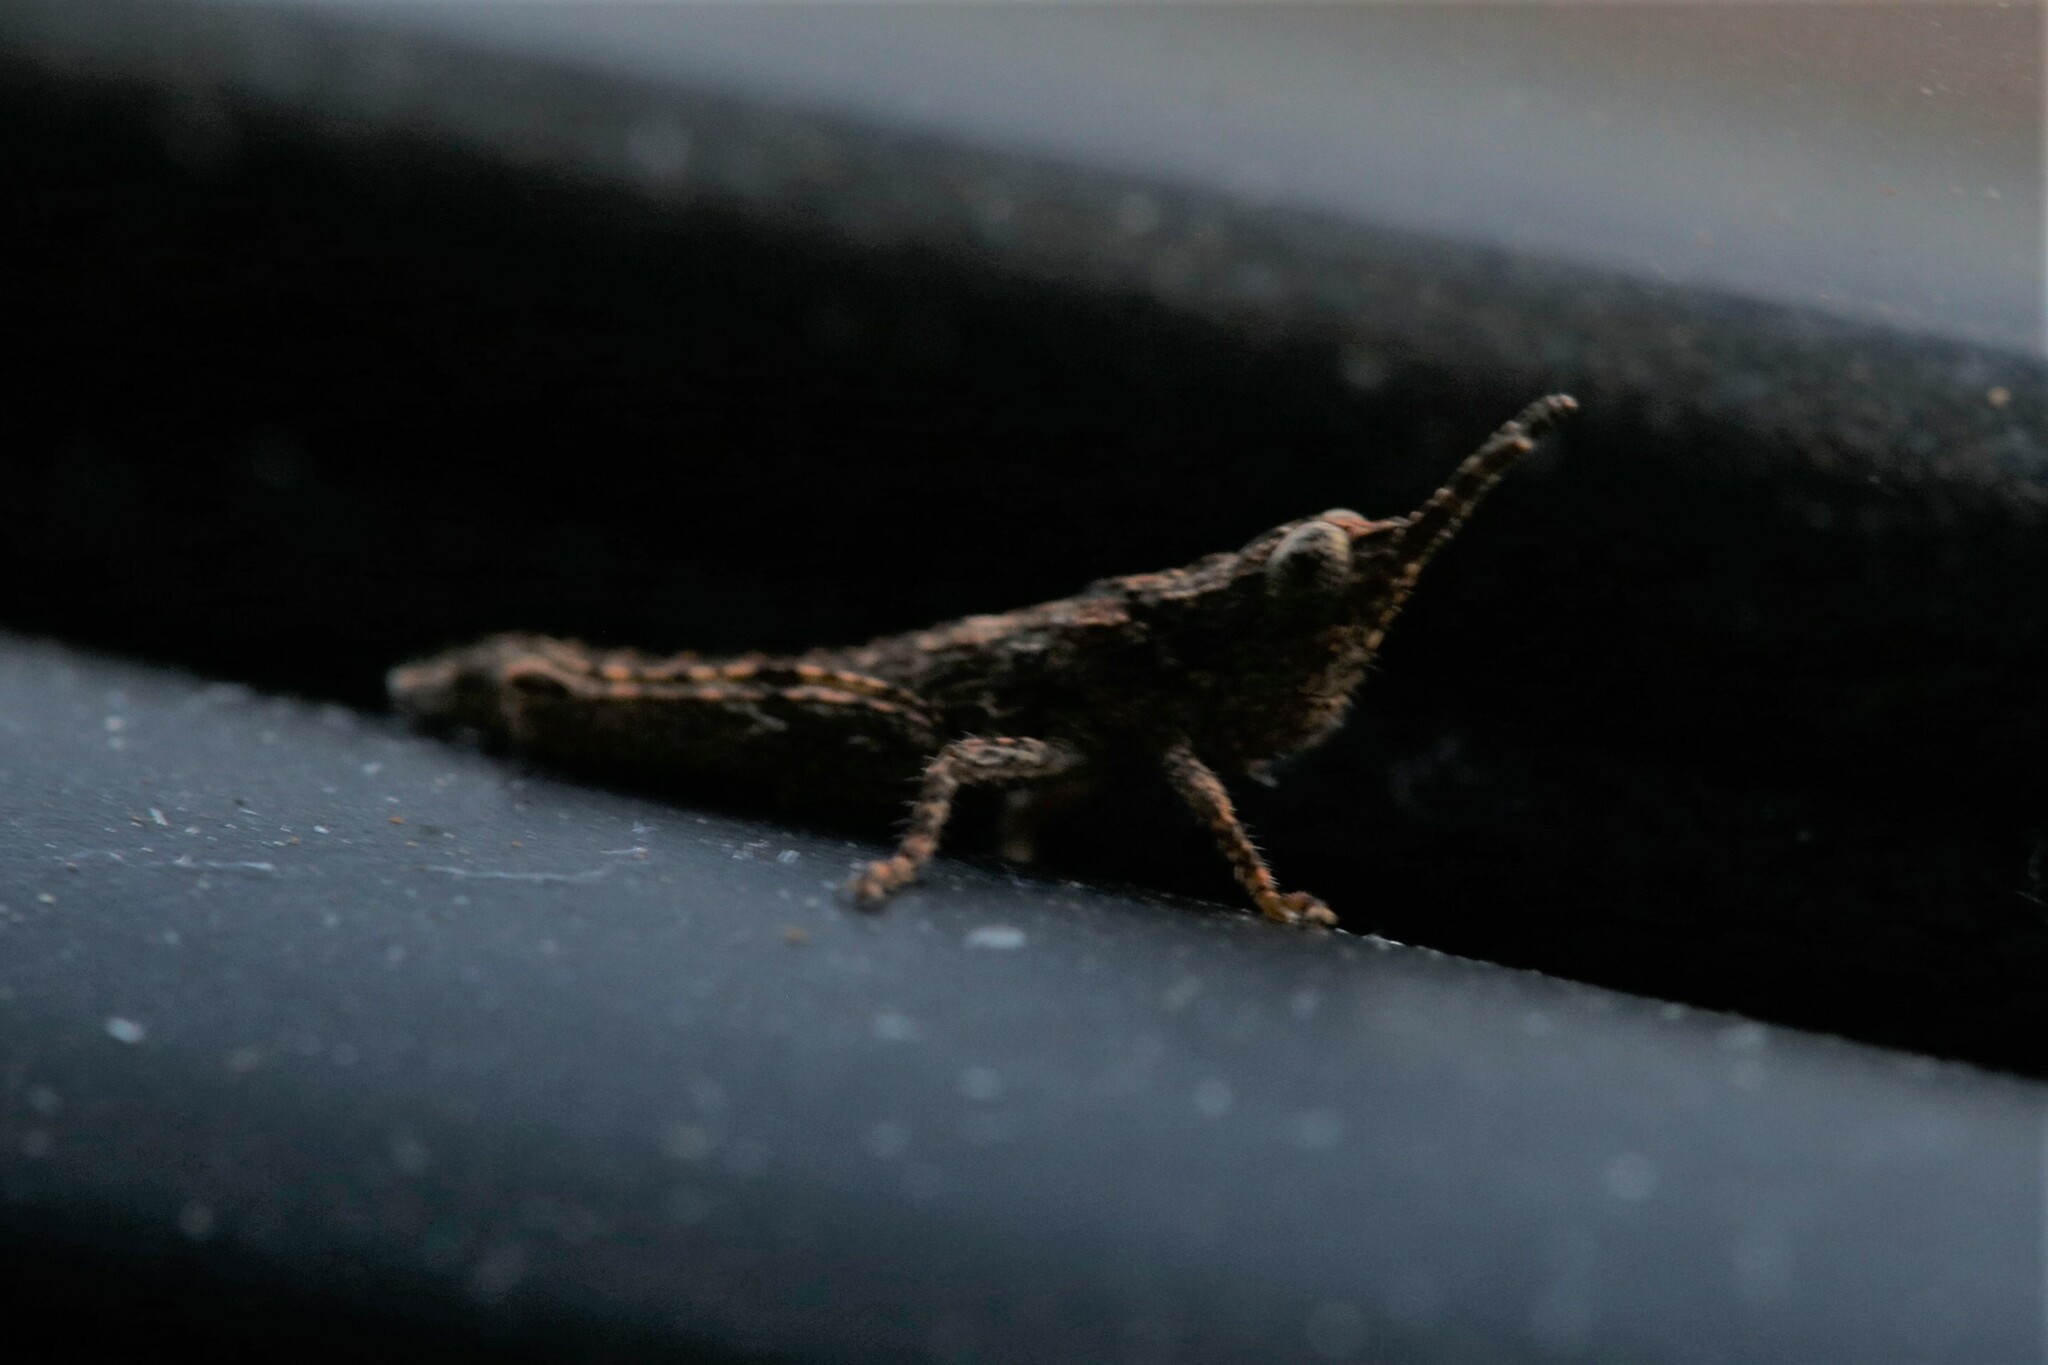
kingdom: Animalia
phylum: Arthropoda
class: Insecta
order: Orthoptera
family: Acrididae
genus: Coryphistes
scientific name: Coryphistes ruricola
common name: Bark-mimicking grasshopper
